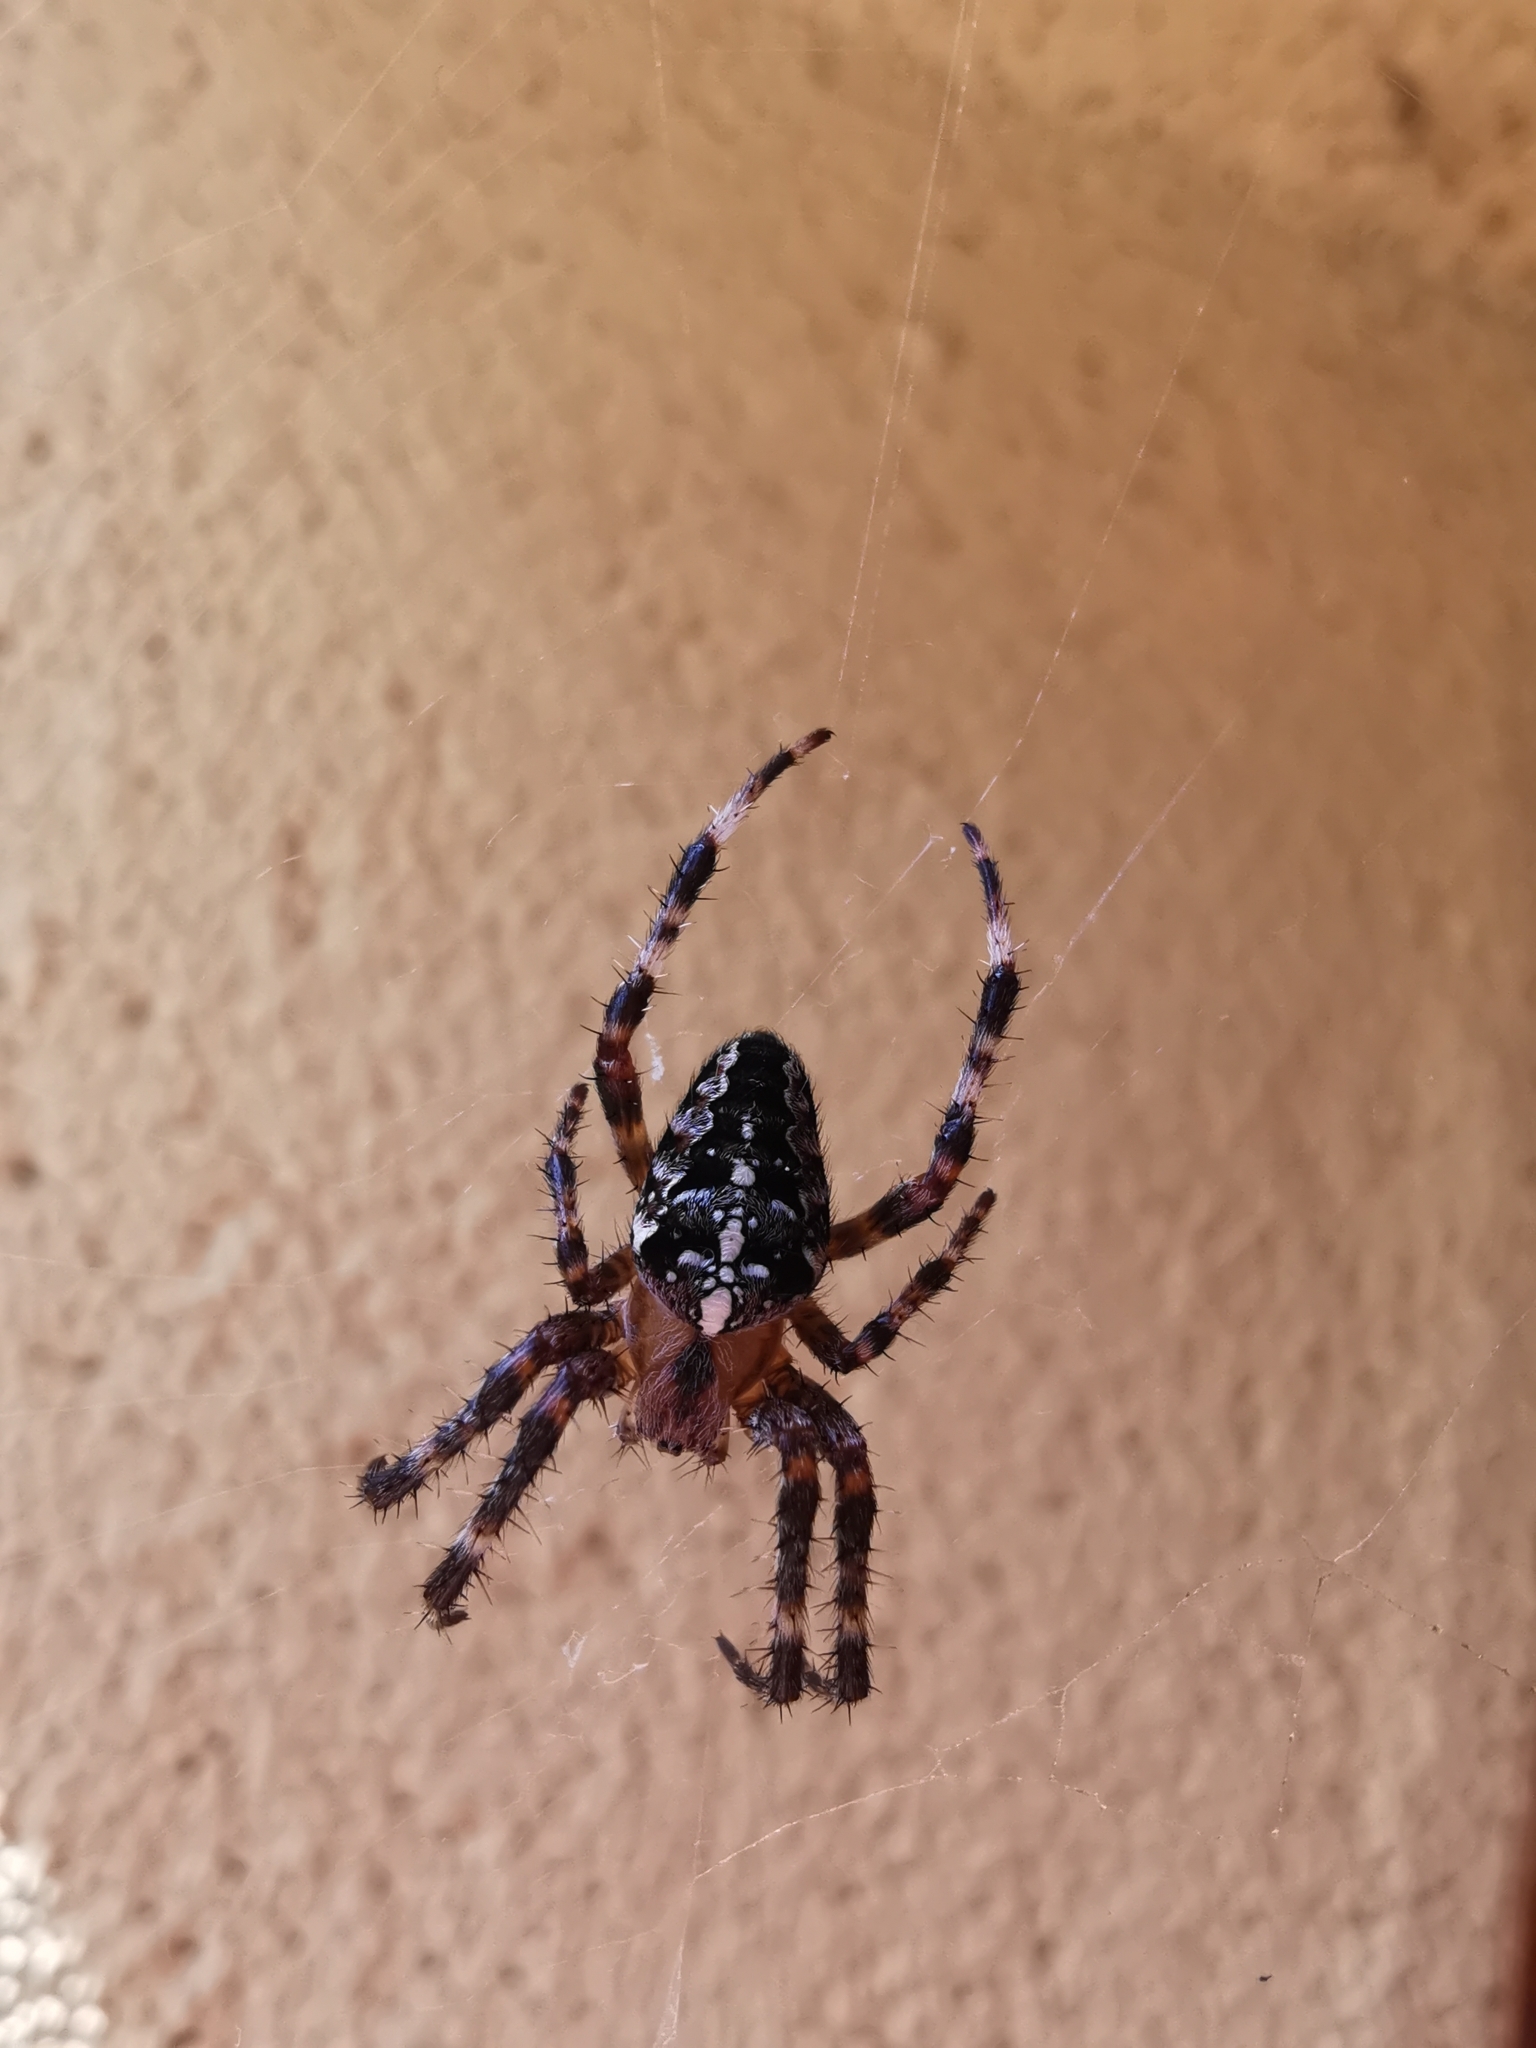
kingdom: Animalia
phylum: Arthropoda
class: Arachnida
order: Araneae
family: Araneidae
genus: Araneus
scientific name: Araneus diadematus
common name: Cross orbweaver
